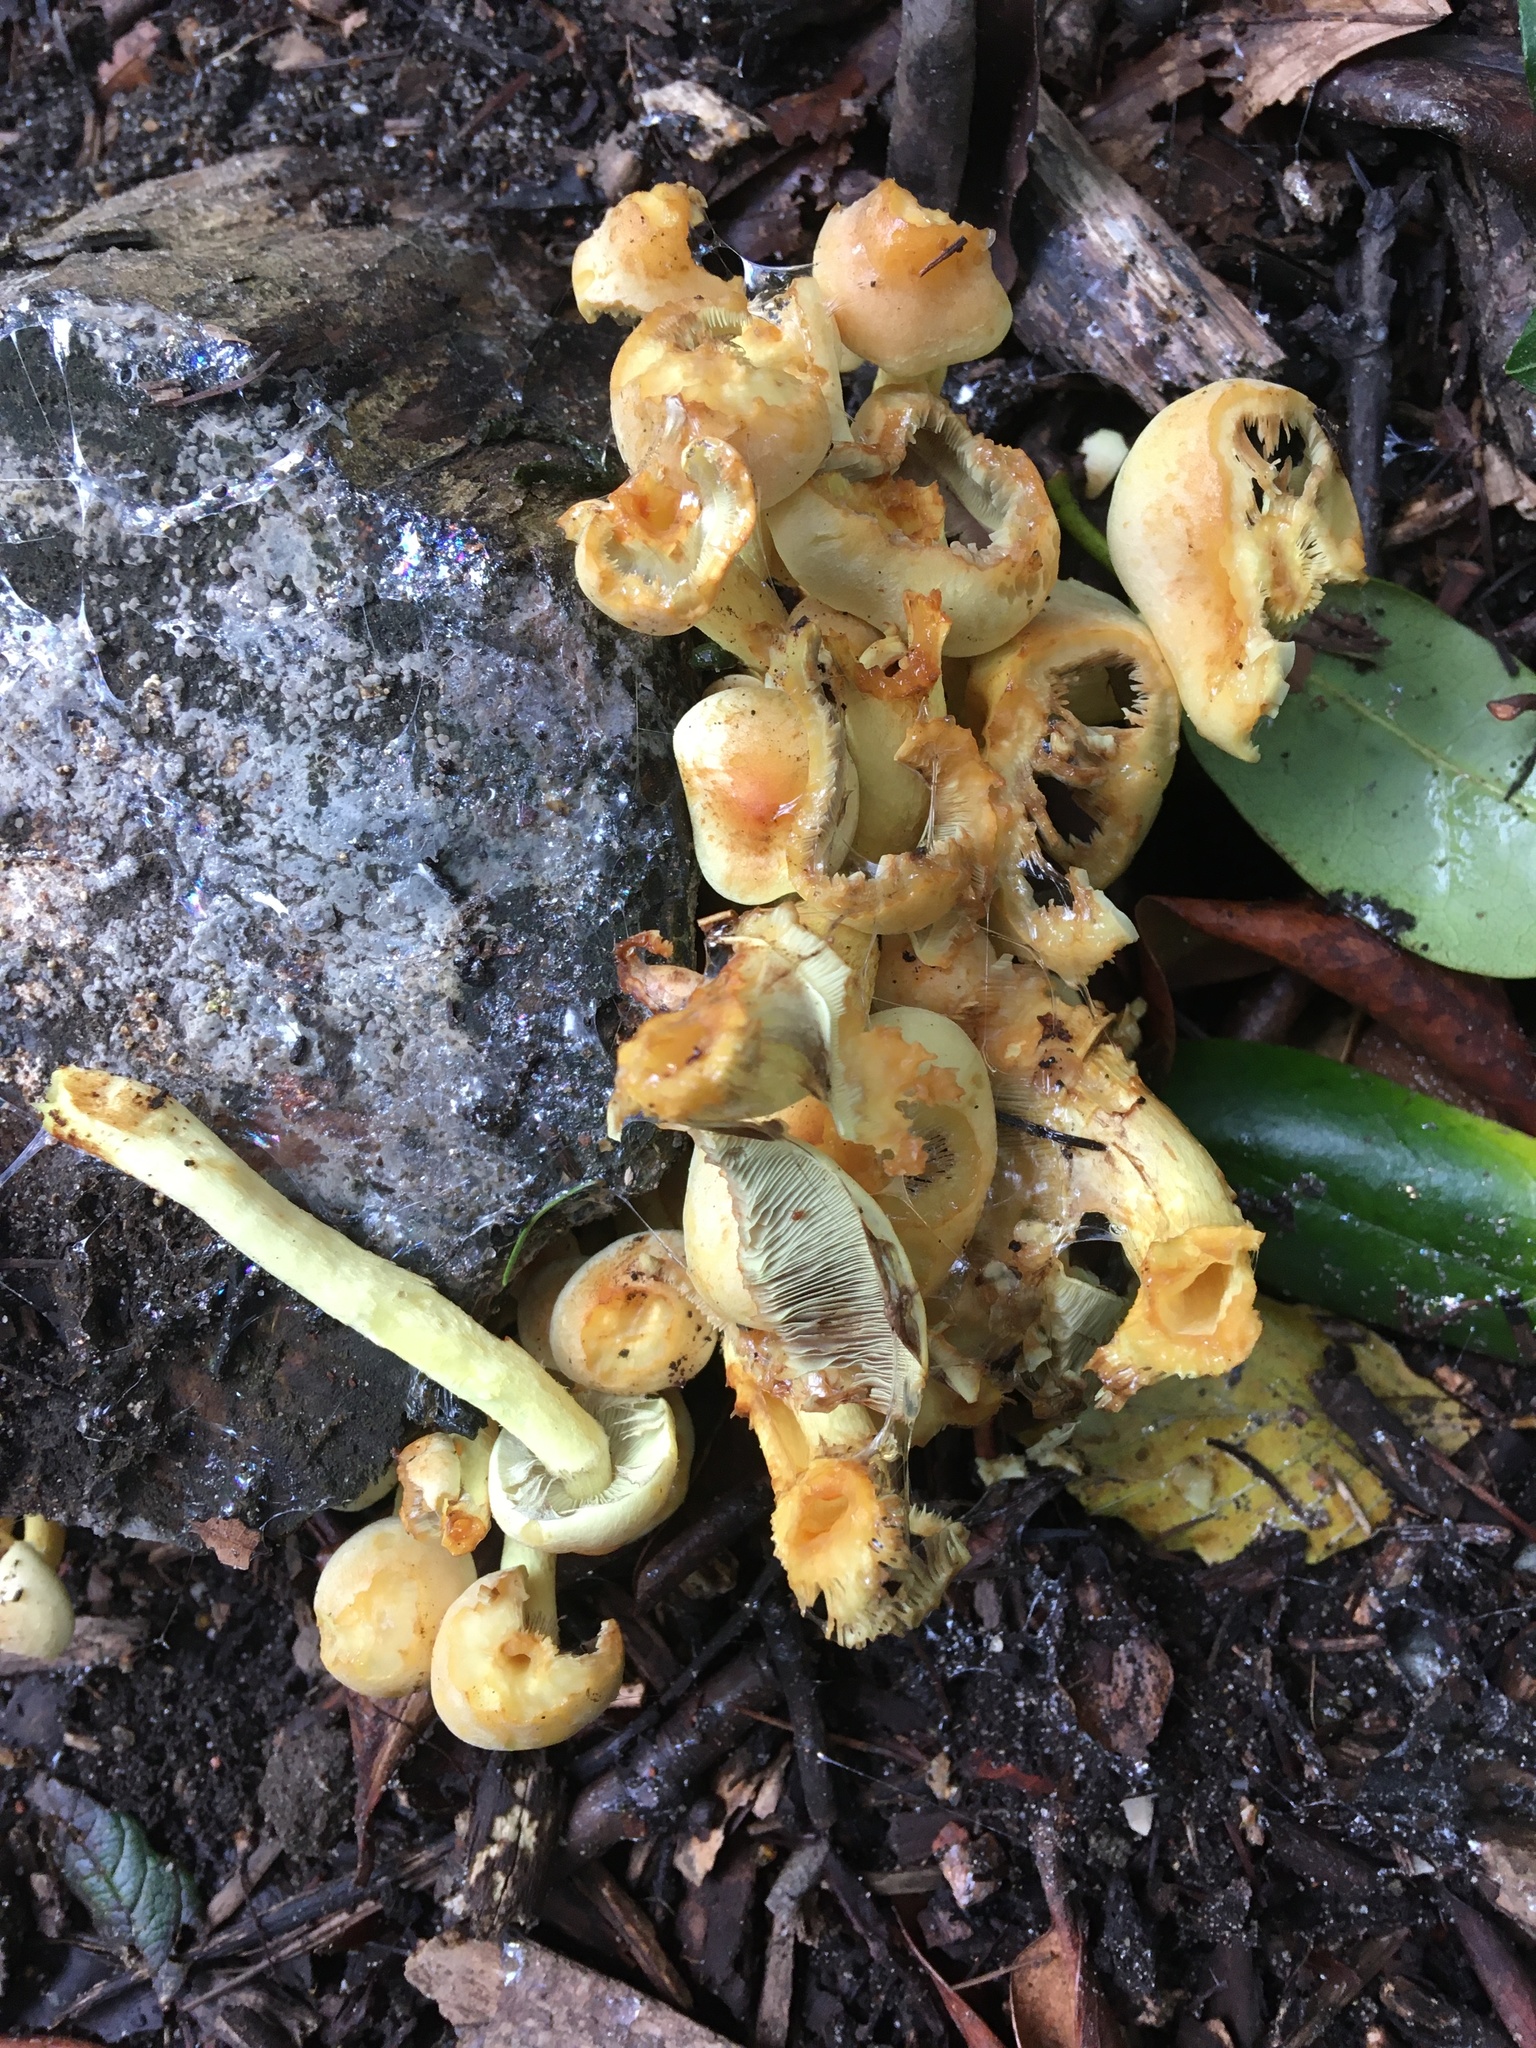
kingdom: Fungi
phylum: Basidiomycota
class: Agaricomycetes
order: Agaricales
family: Strophariaceae
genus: Hypholoma
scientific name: Hypholoma fasciculare
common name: Sulphur tuft
